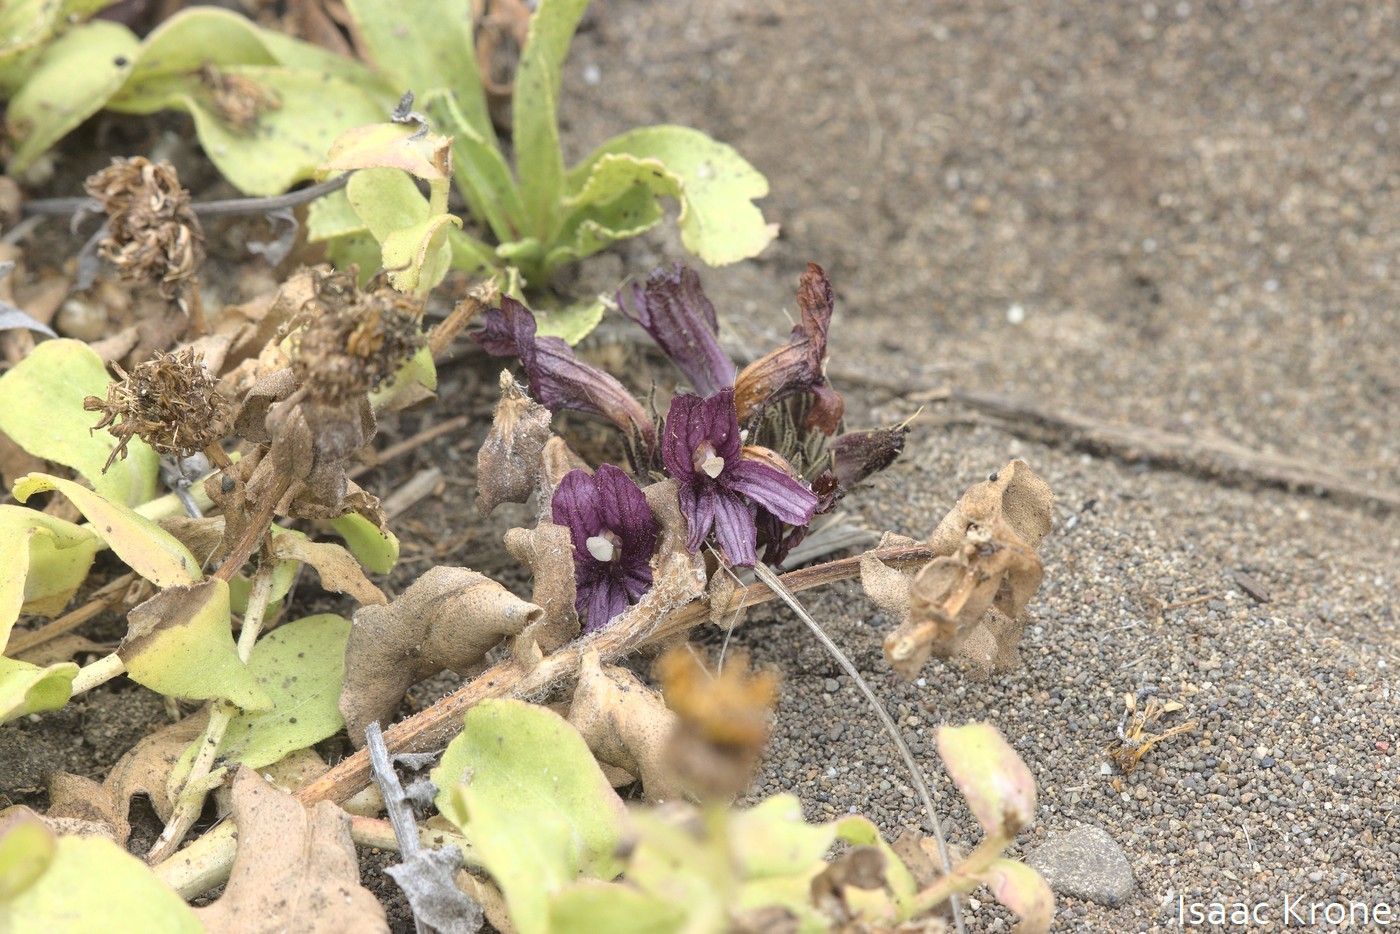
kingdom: Plantae
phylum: Tracheophyta
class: Magnoliopsida
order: Lamiales
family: Orobanchaceae
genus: Aphyllon
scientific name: Aphyllon californicum
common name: California broomrape
